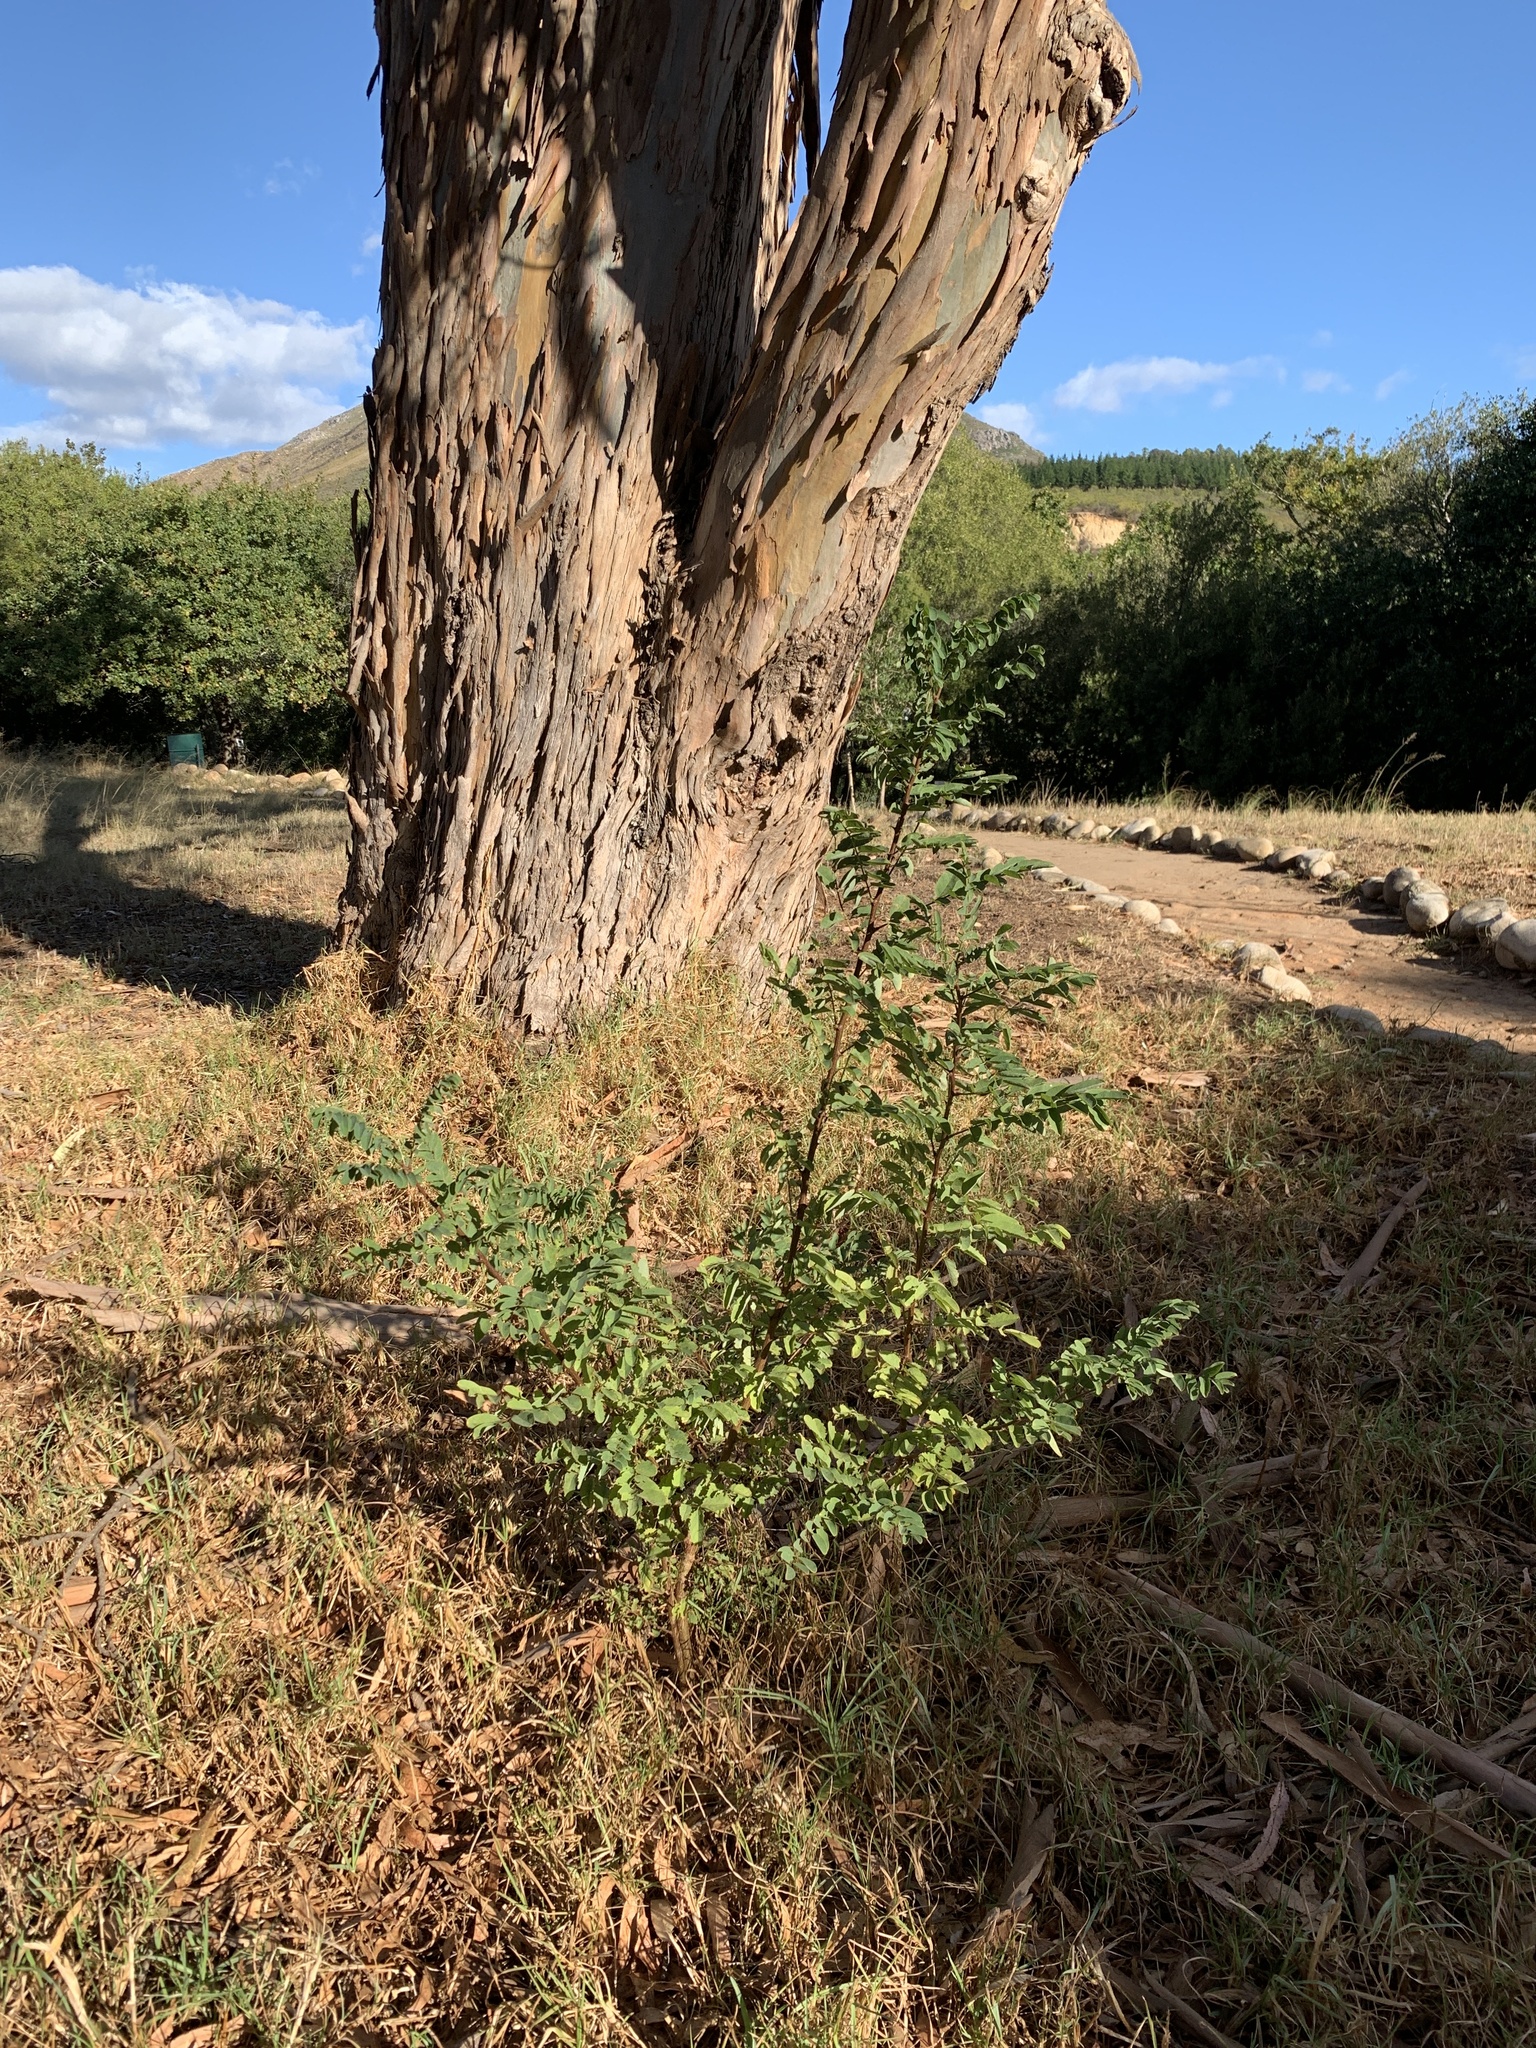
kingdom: Plantae
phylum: Tracheophyta
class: Magnoliopsida
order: Fabales
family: Fabaceae
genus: Robinia
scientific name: Robinia pseudoacacia
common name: Black locust
